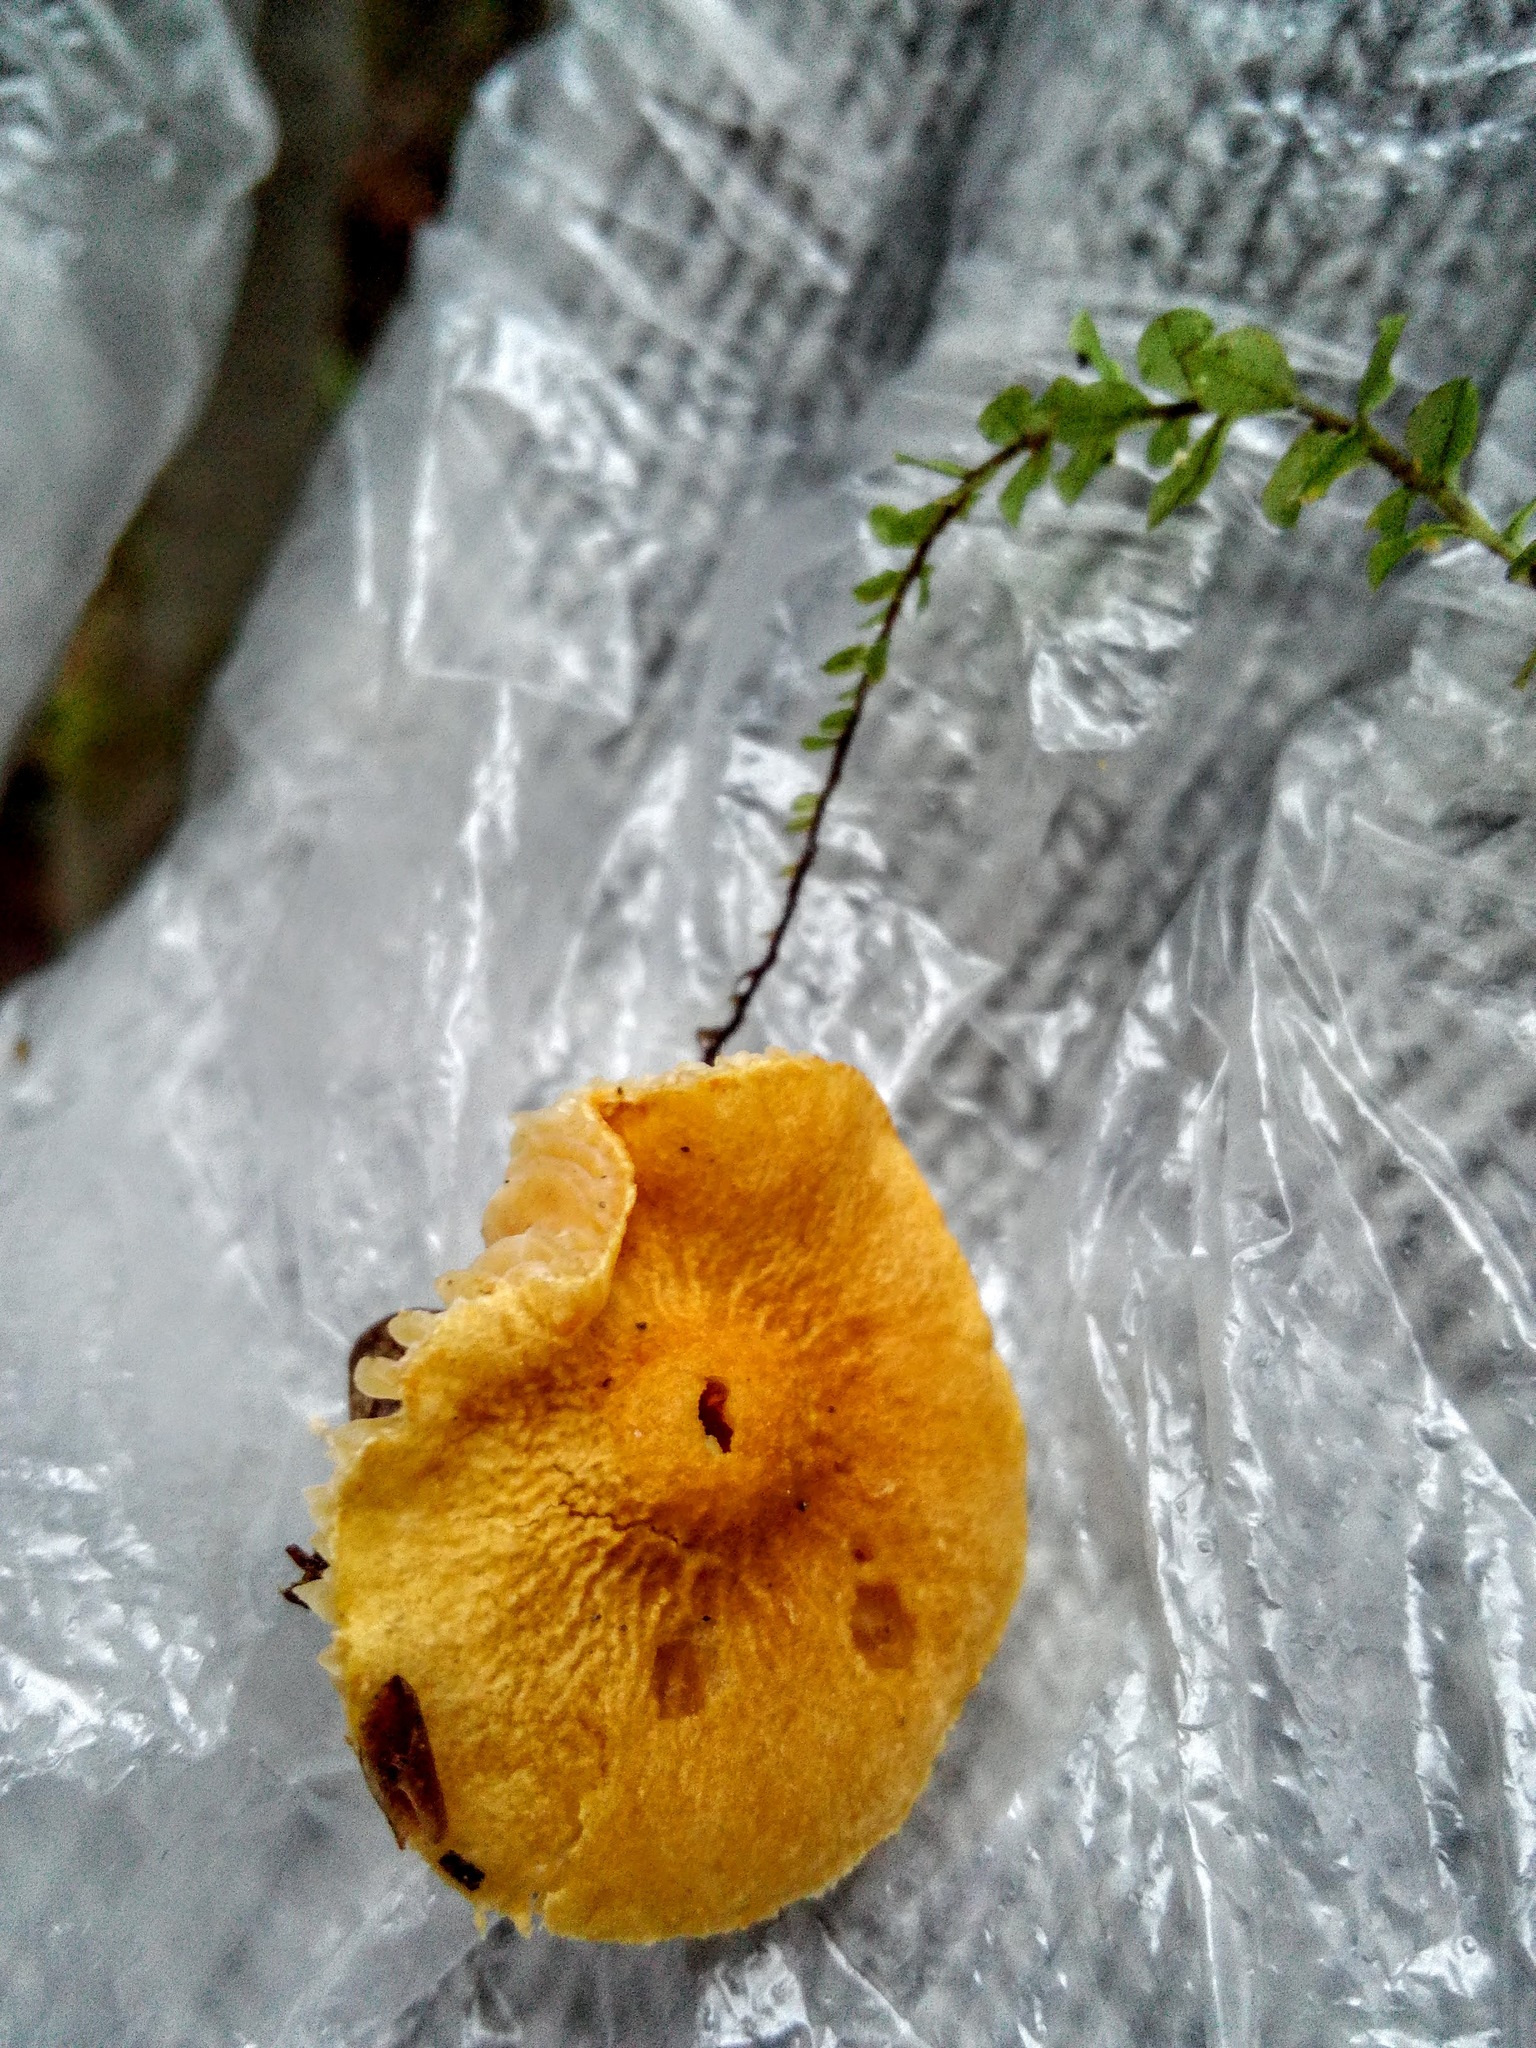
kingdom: Fungi
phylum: Basidiomycota
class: Agaricomycetes
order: Agaricales
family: Physalacriaceae
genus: Flammulina
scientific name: Flammulina velutipes
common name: Velvet shank
